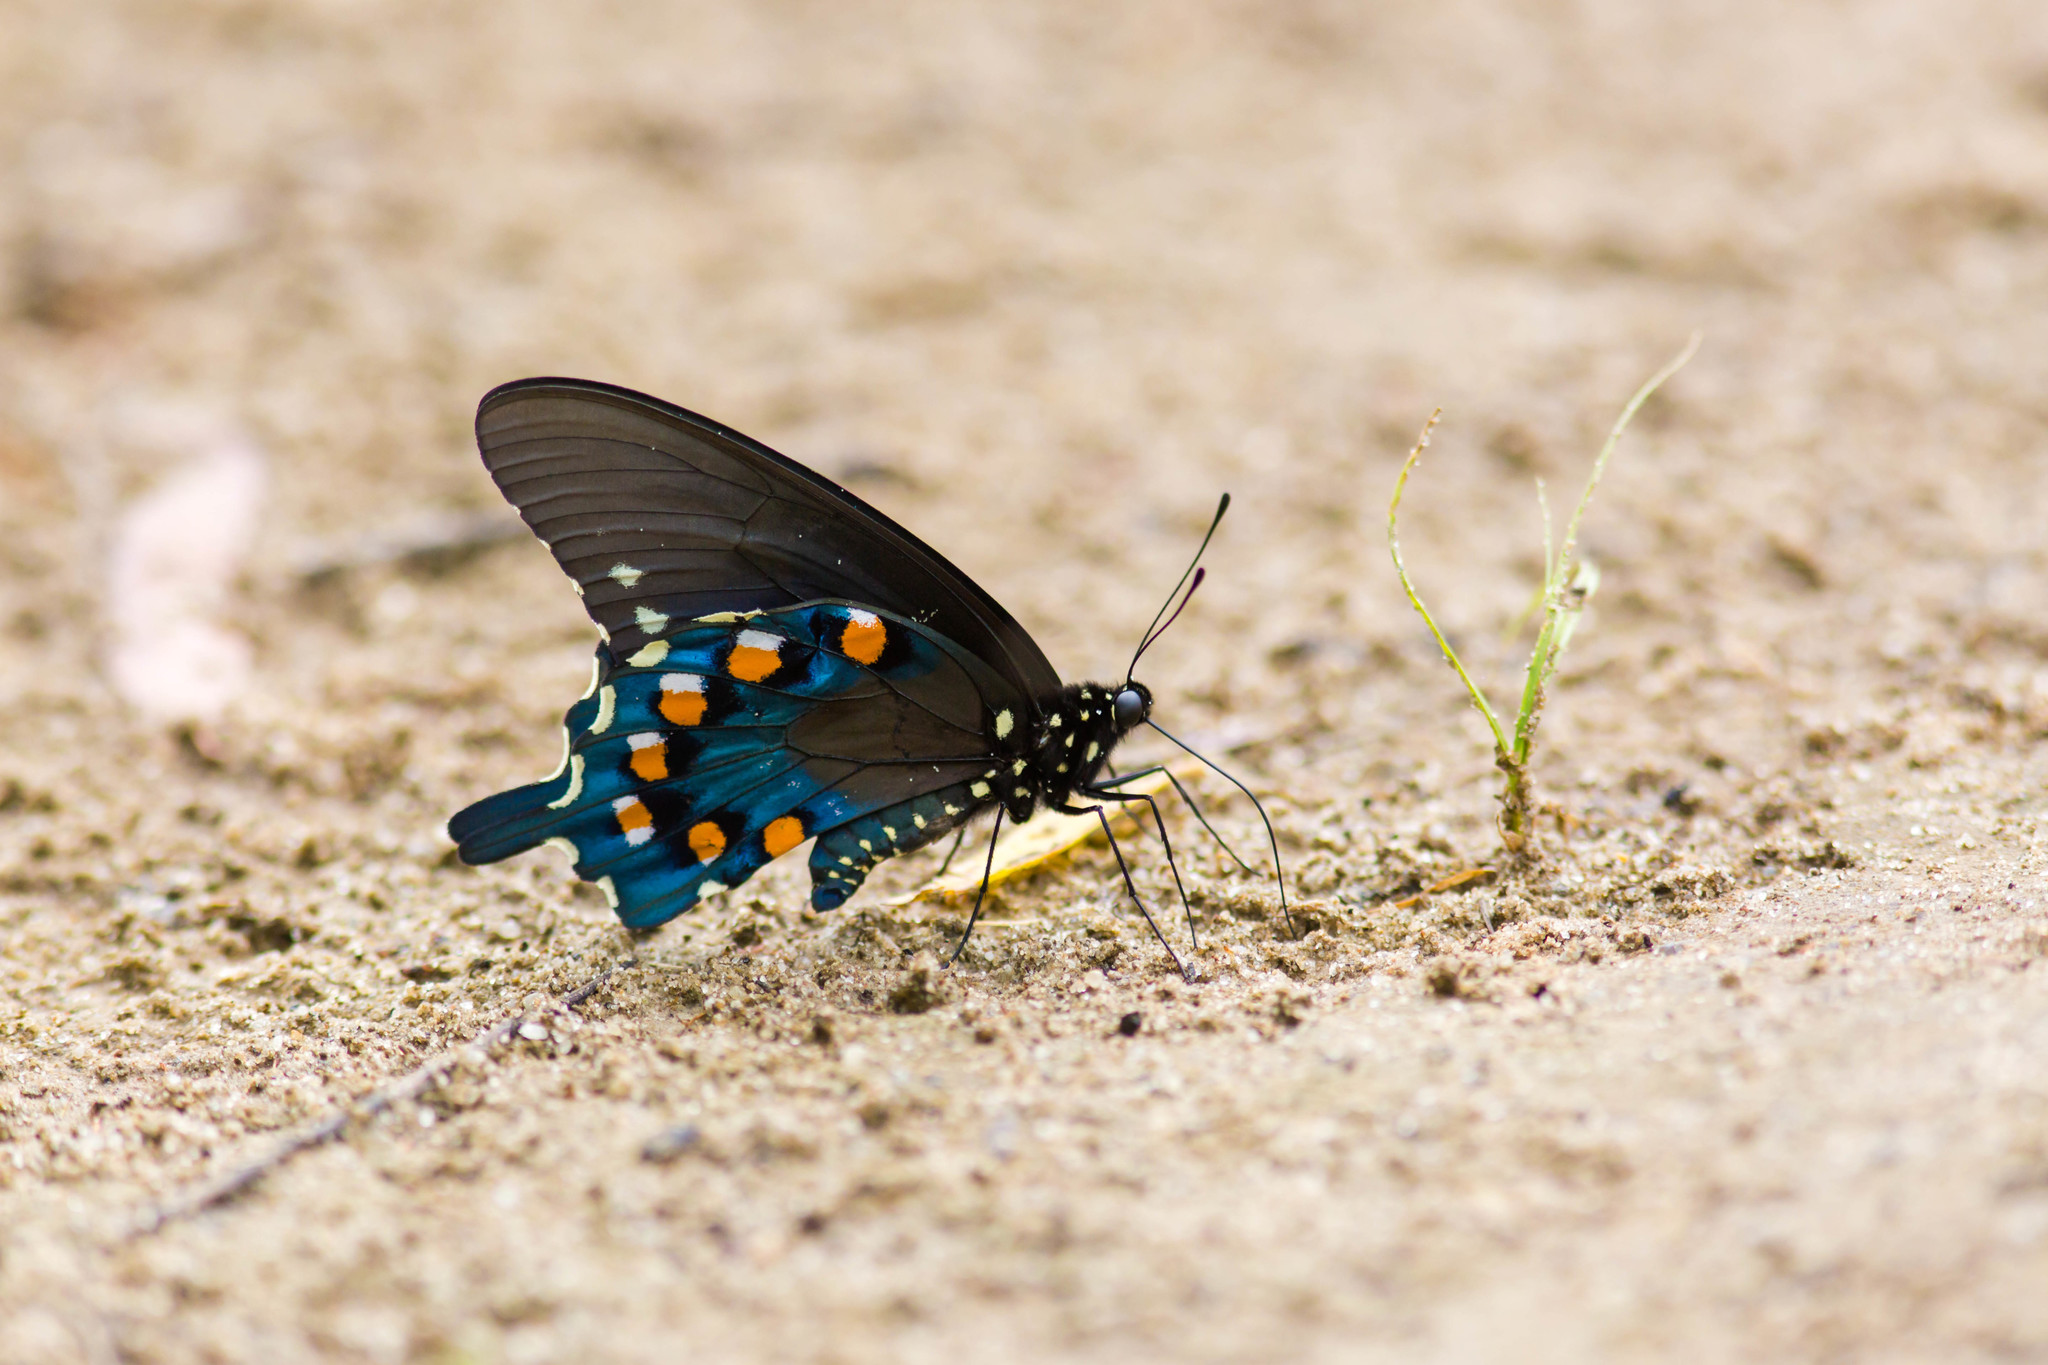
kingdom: Animalia
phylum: Arthropoda
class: Insecta
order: Lepidoptera
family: Papilionidae
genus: Battus
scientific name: Battus philenor
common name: Pipevine swallowtail
